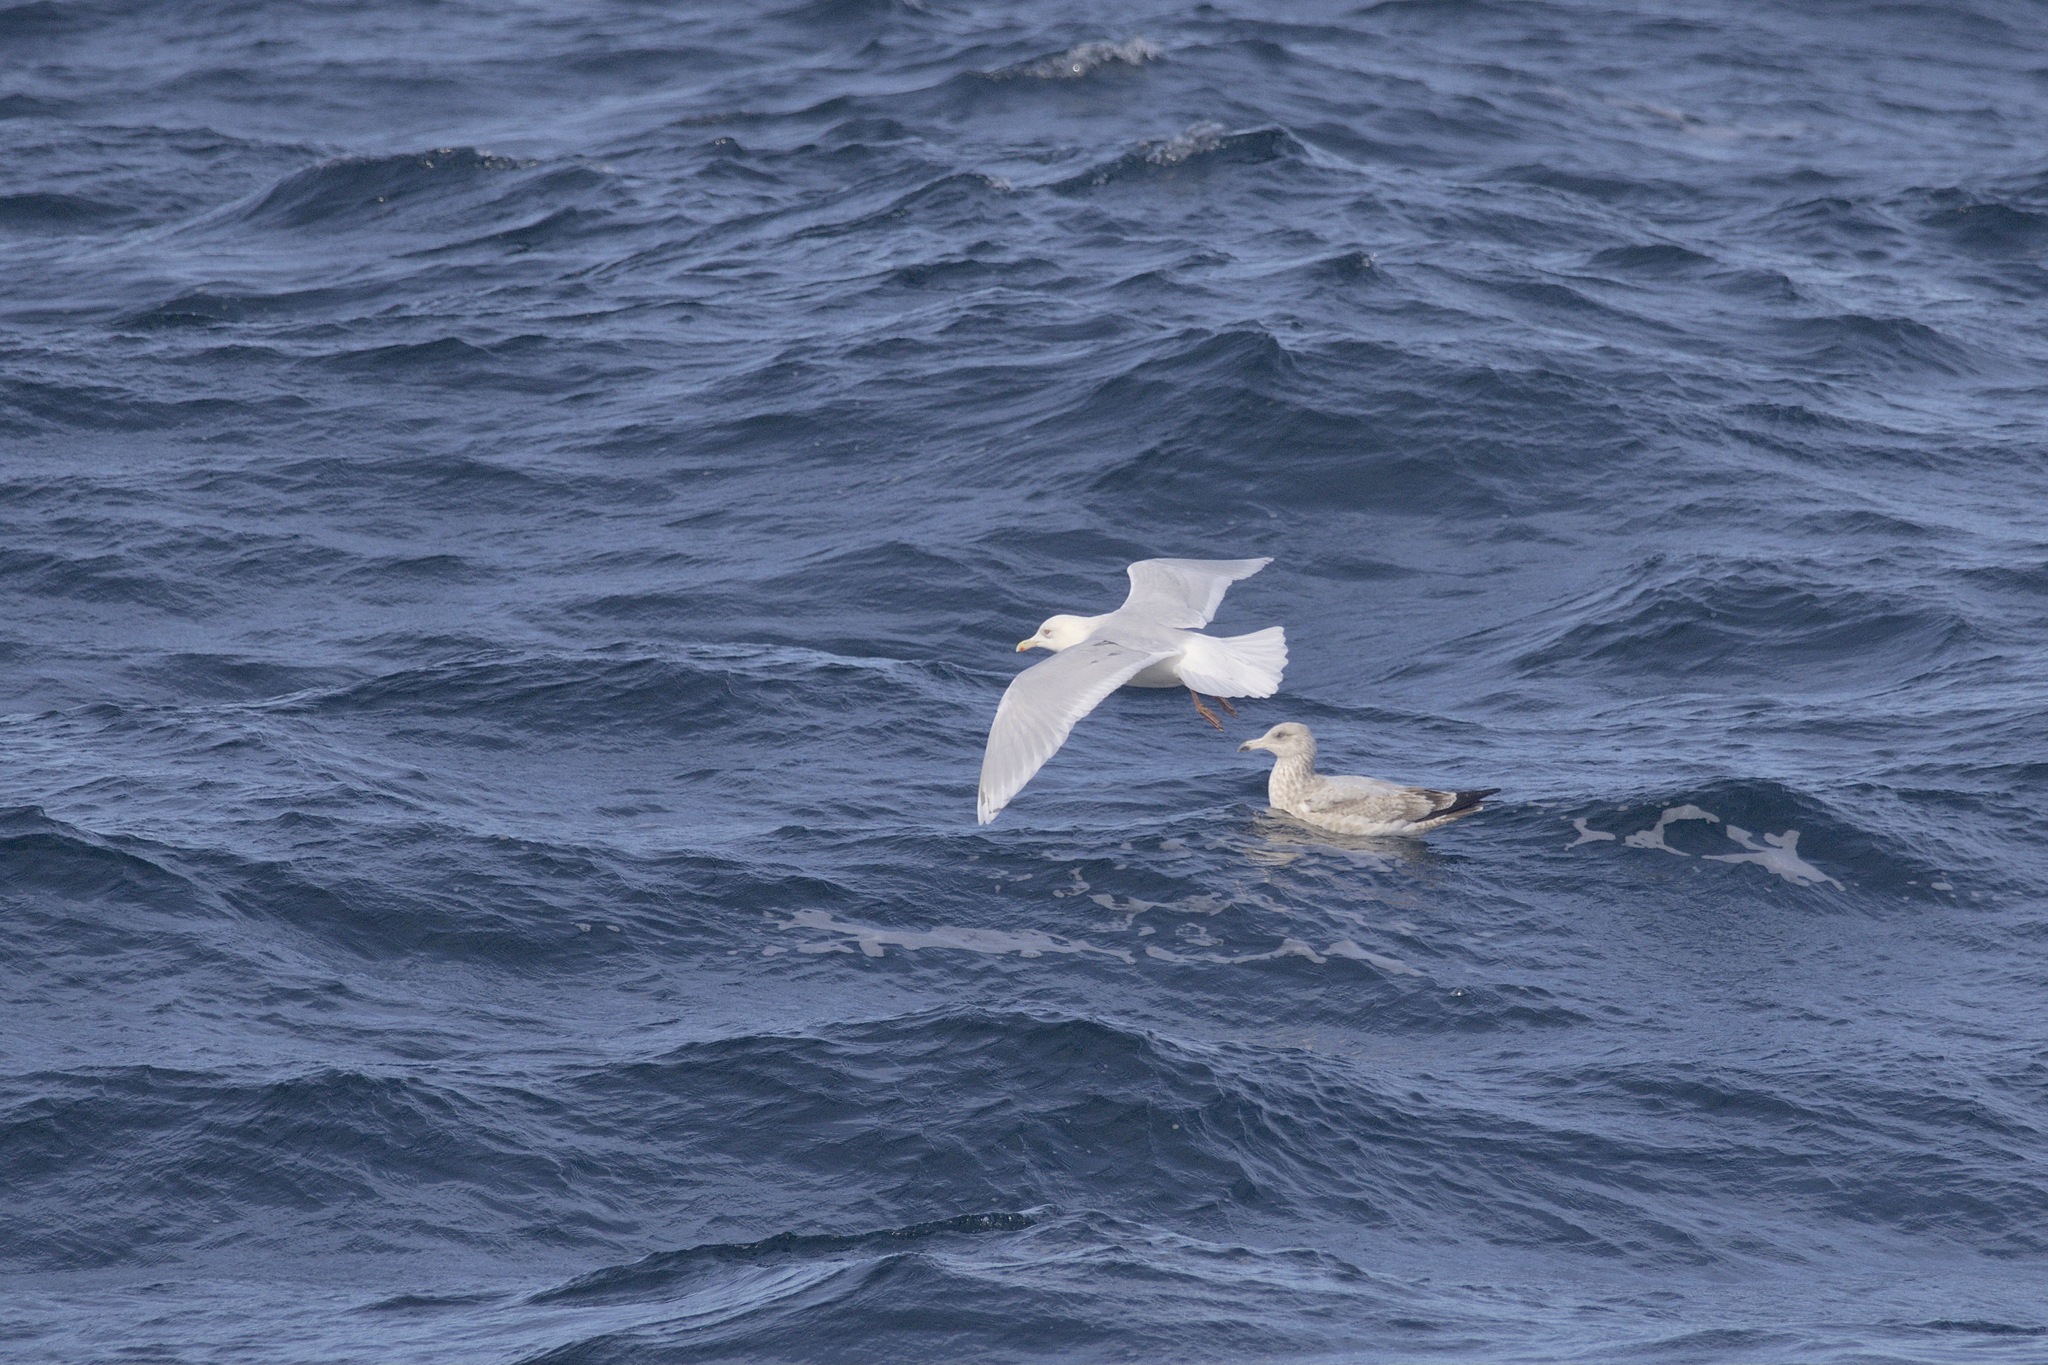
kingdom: Animalia
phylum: Chordata
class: Aves
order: Charadriiformes
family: Laridae
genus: Larus
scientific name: Larus glaucoides
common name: Iceland gull
